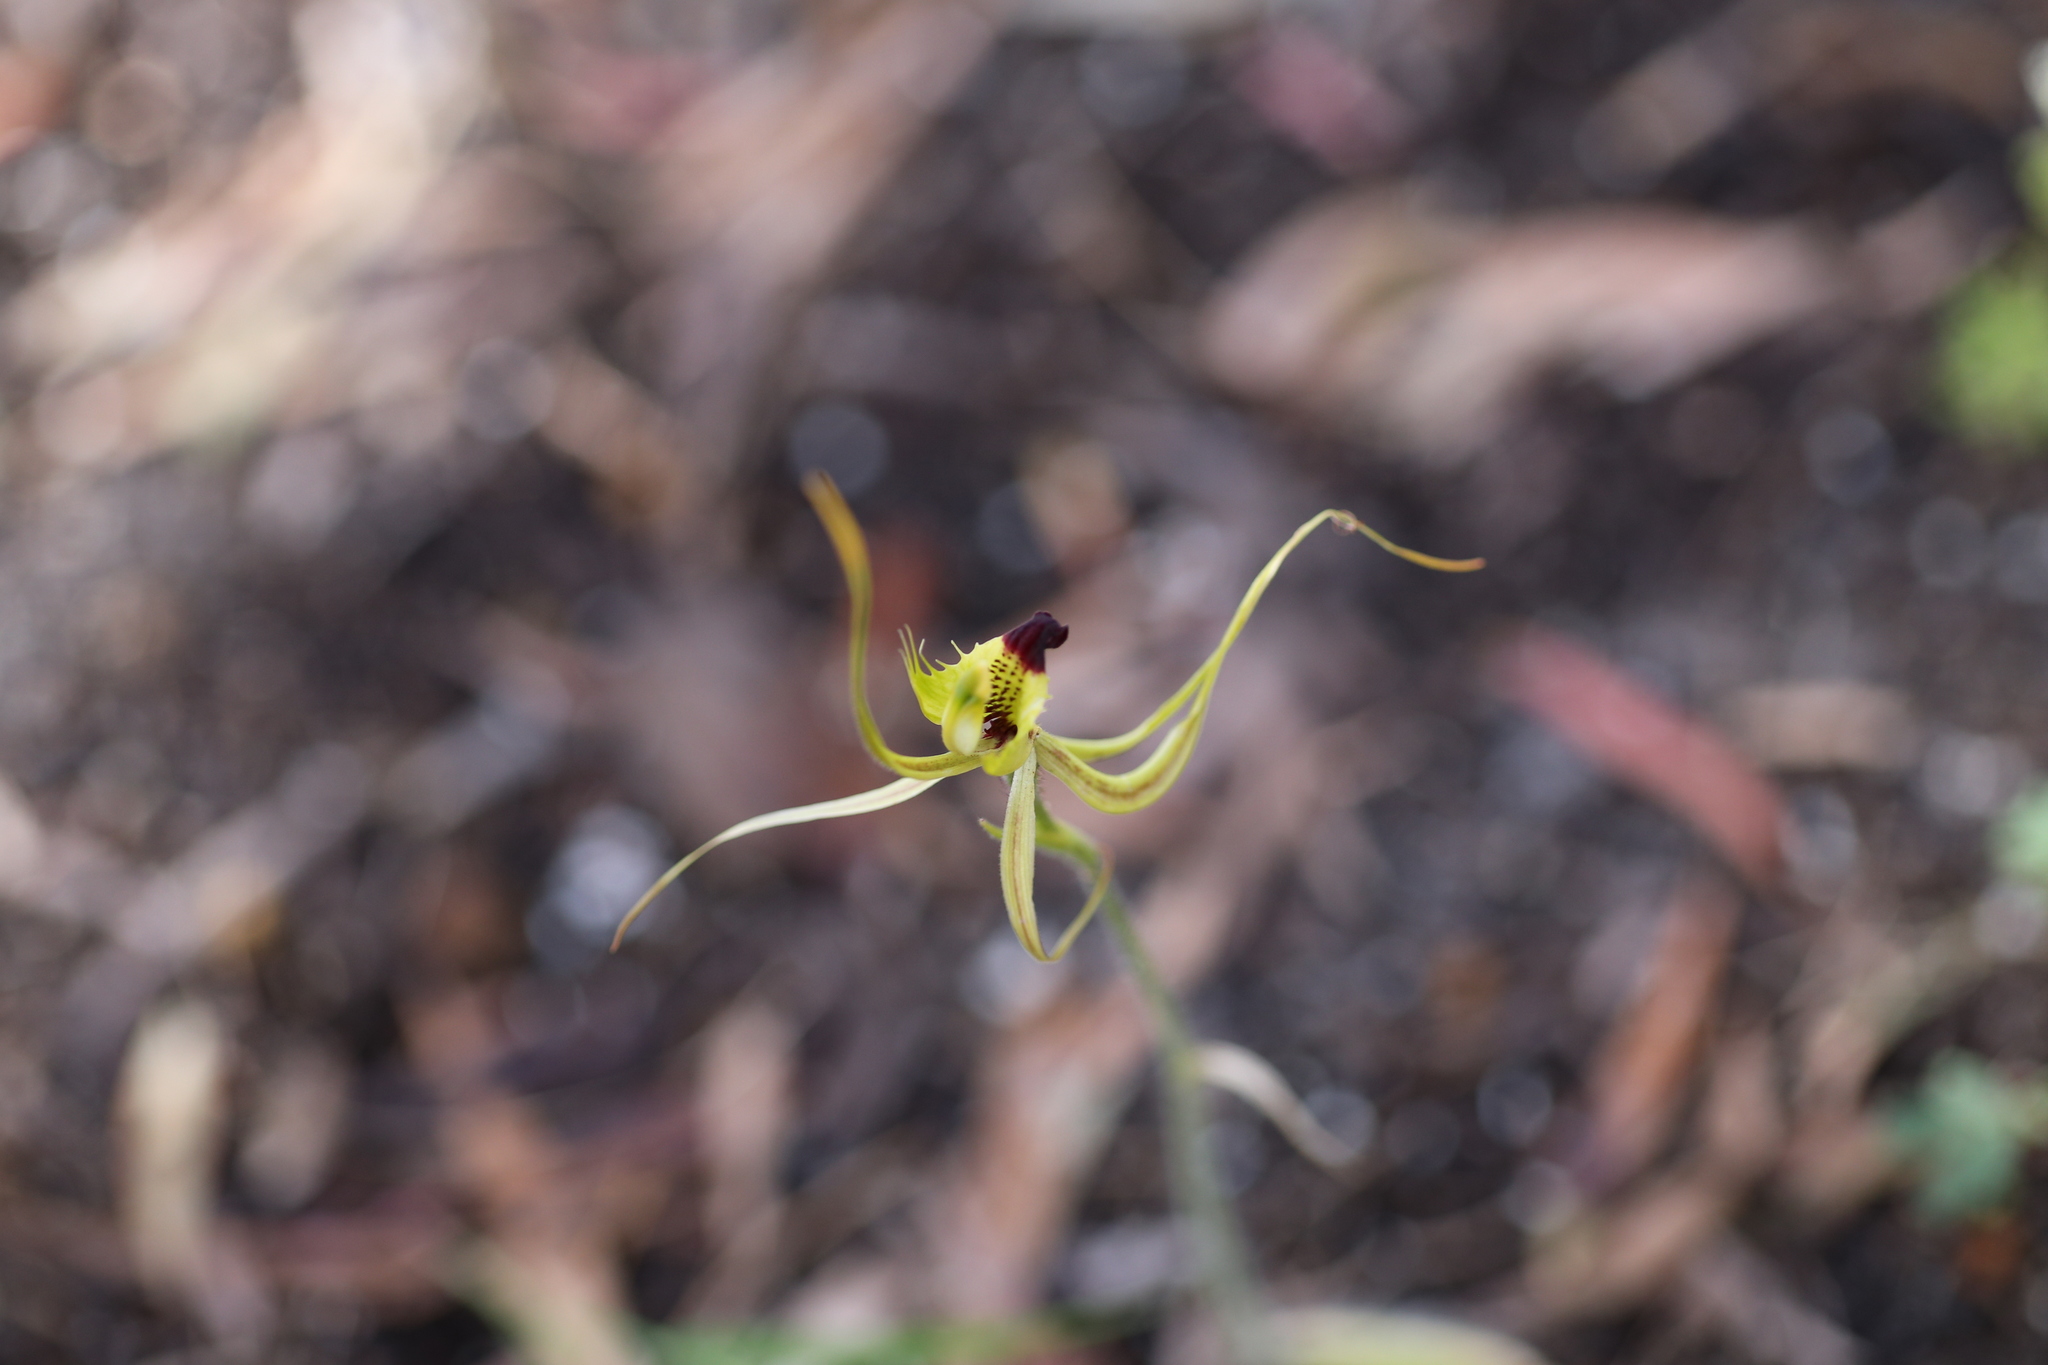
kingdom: Plantae
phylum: Tracheophyta
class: Liliopsida
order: Asparagales
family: Orchidaceae
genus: Caladenia
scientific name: Caladenia attingens
